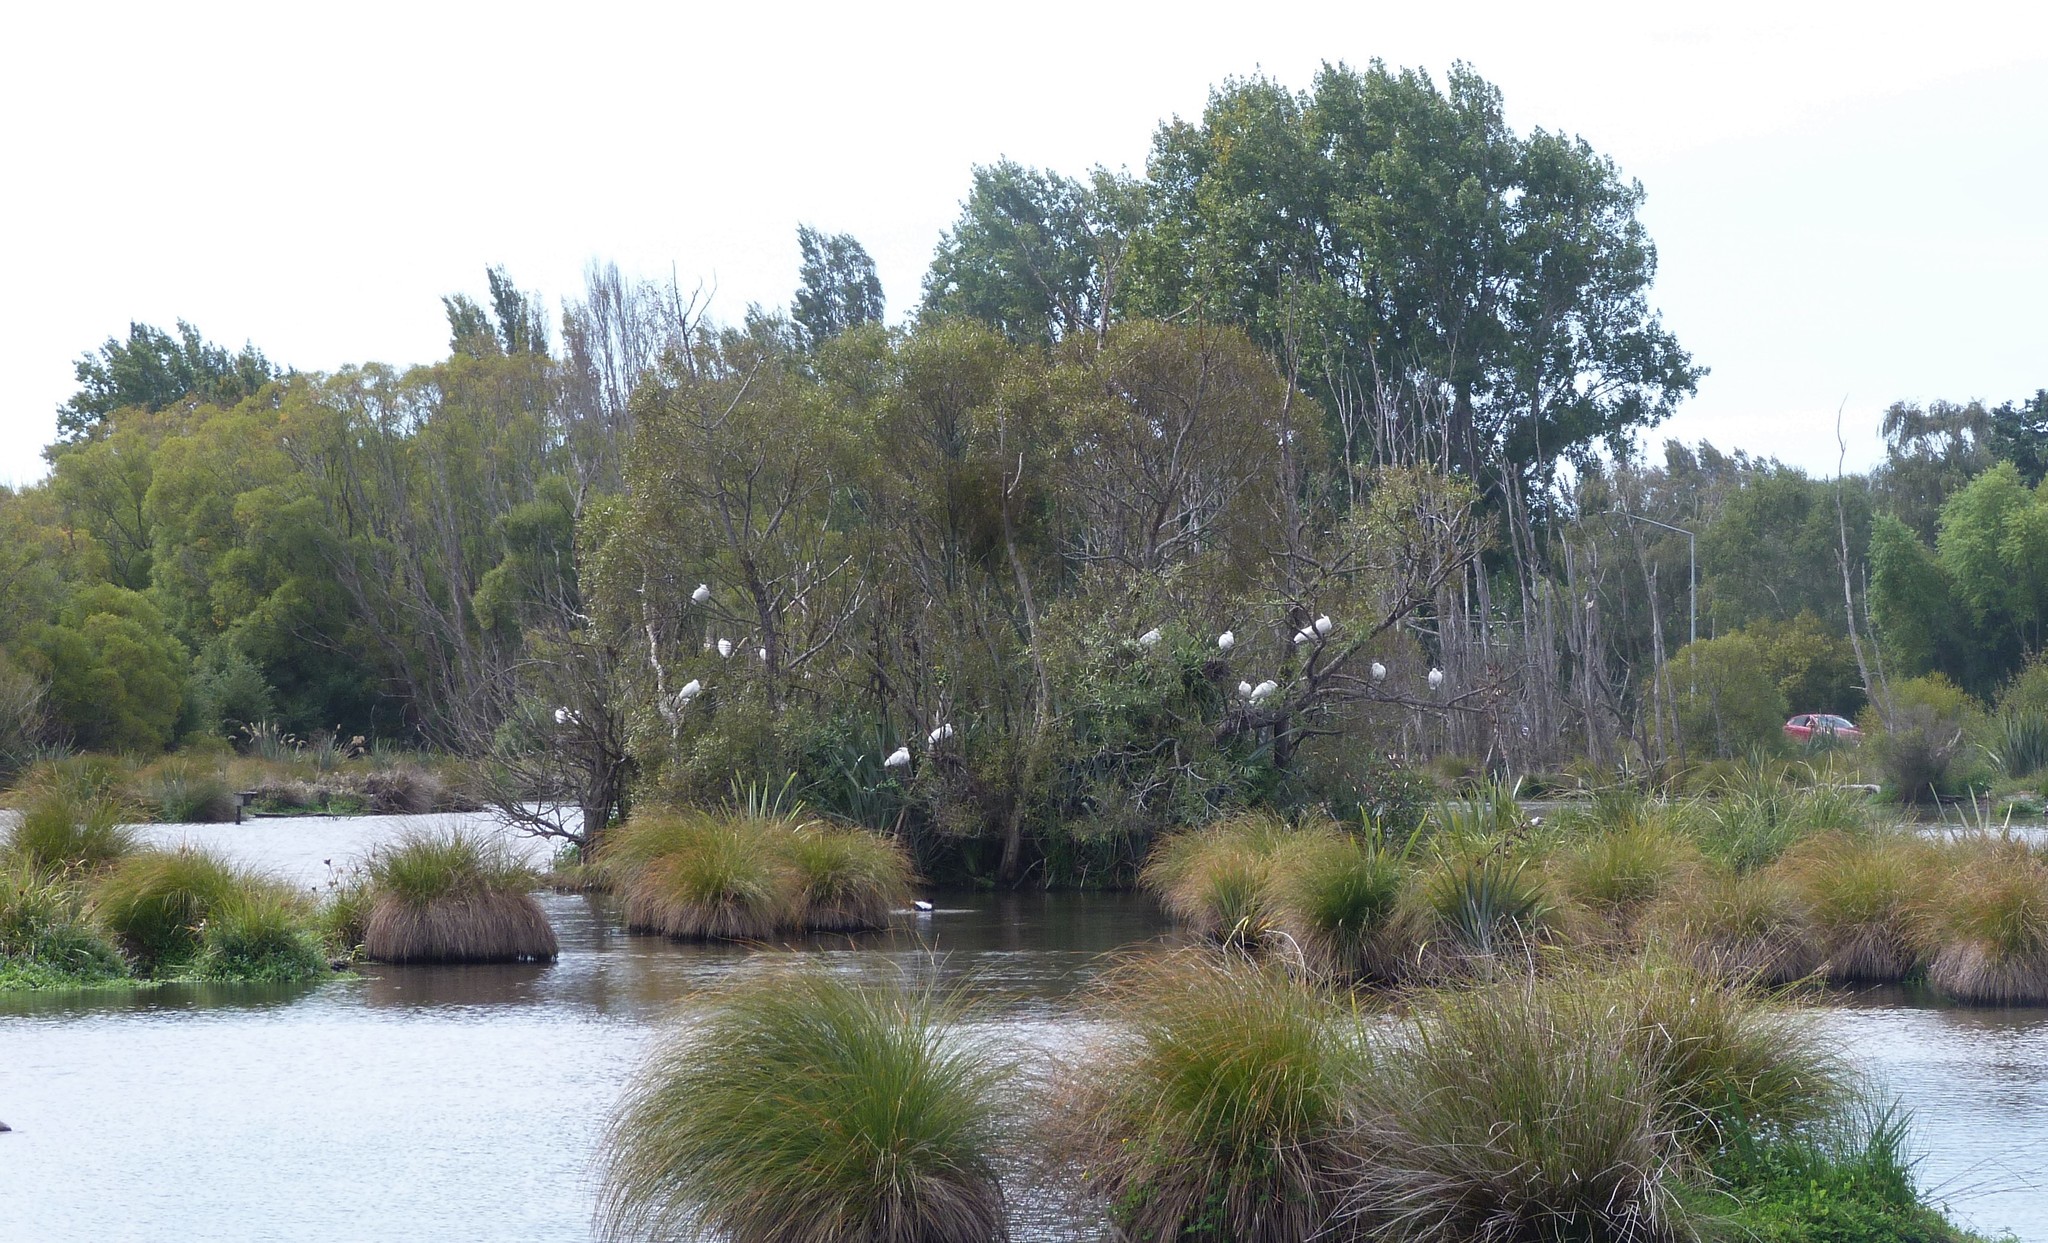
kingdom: Animalia
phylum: Chordata
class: Aves
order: Pelecaniformes
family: Threskiornithidae
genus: Platalea
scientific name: Platalea regia
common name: Royal spoonbill
